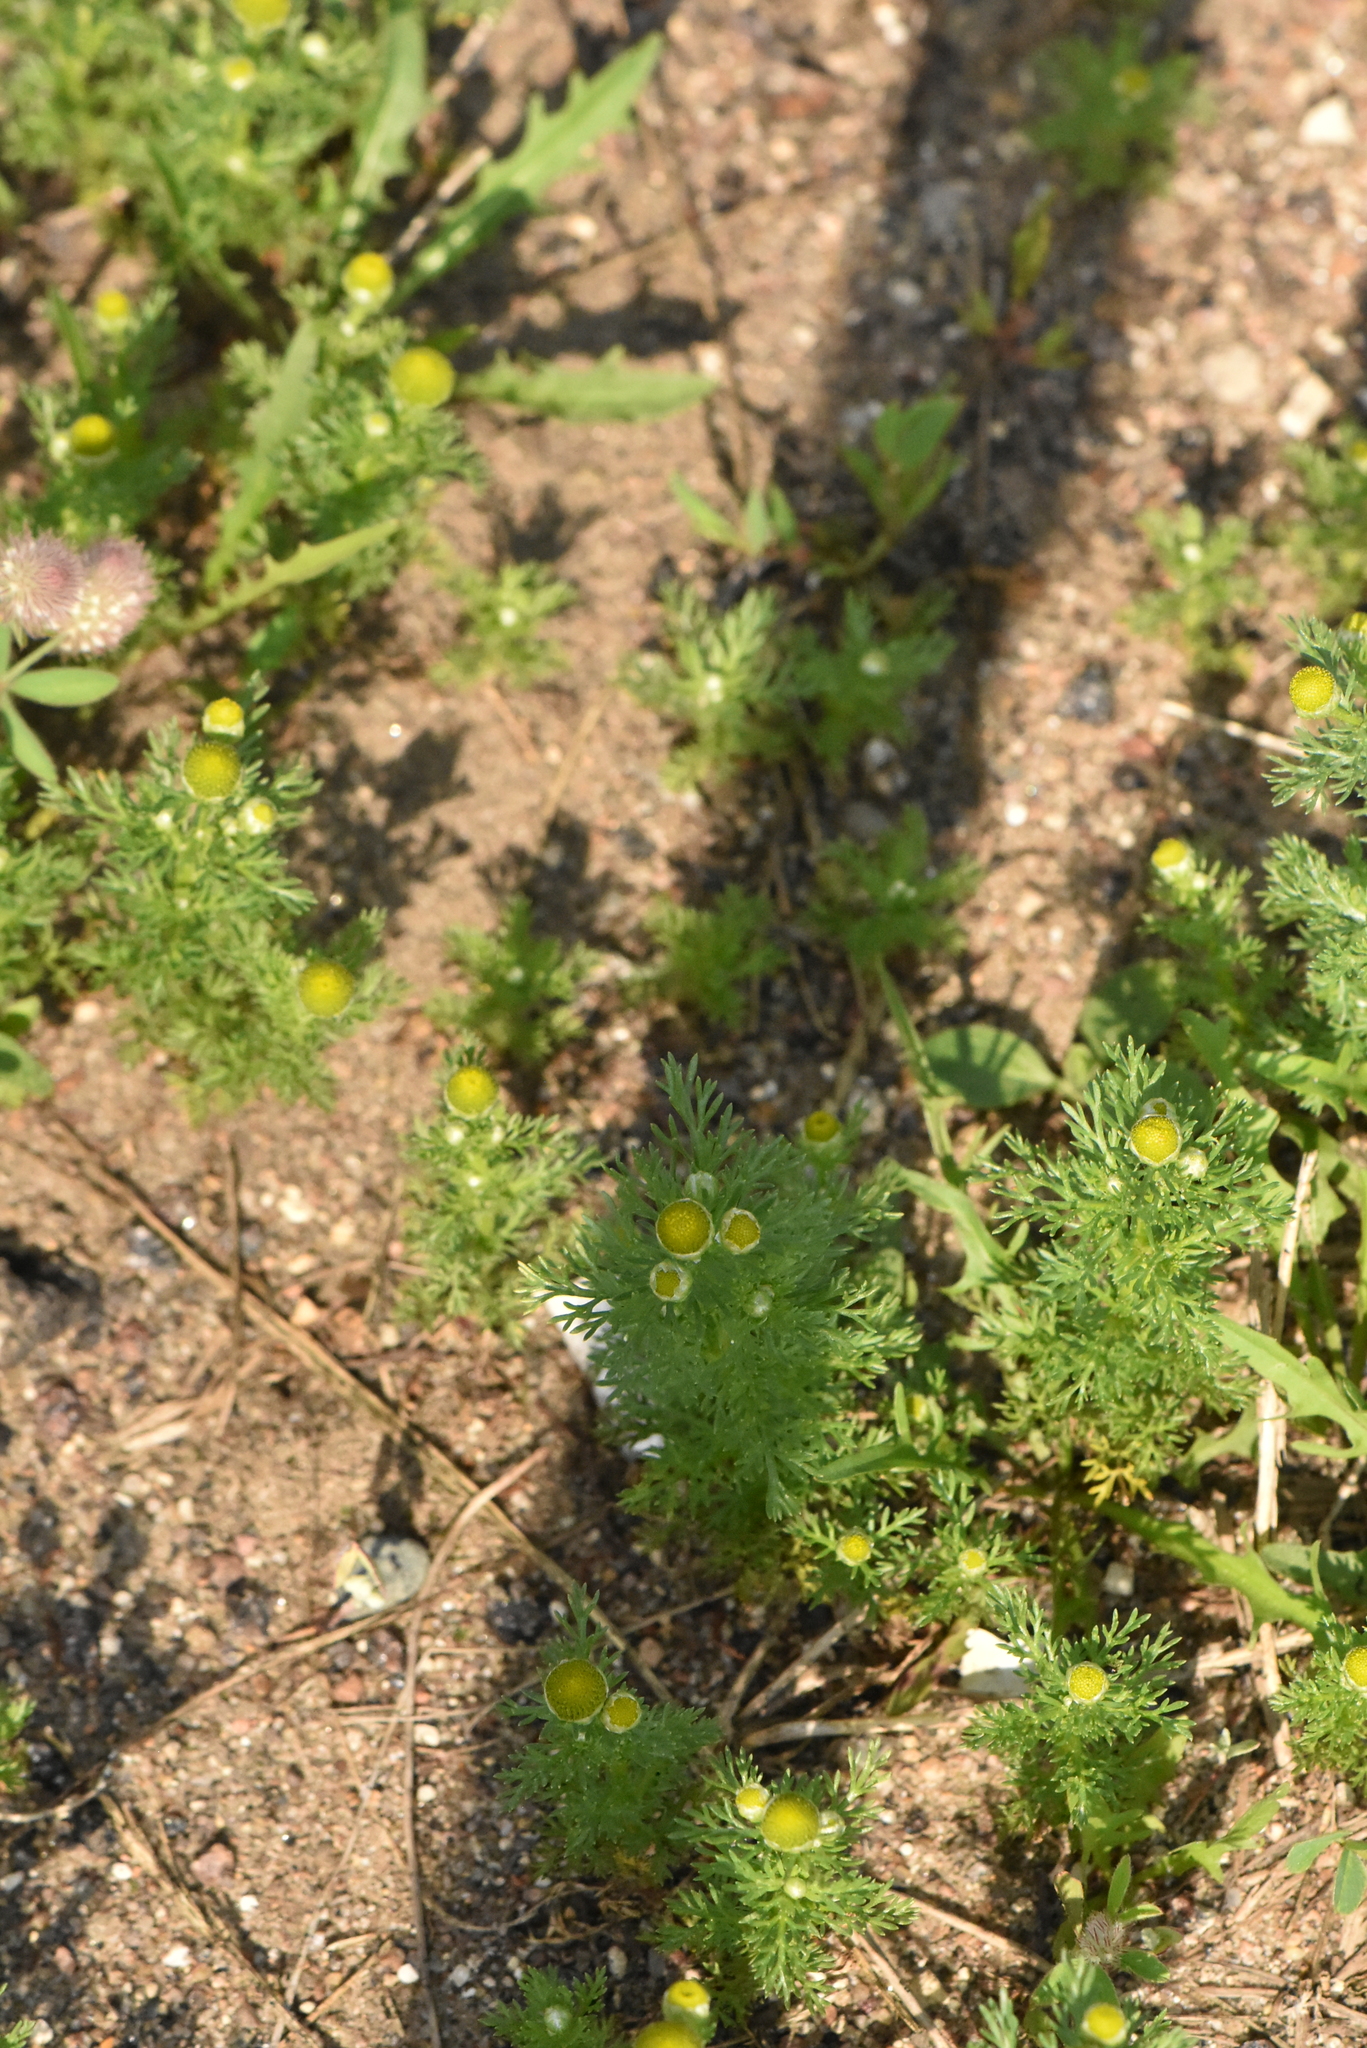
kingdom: Plantae
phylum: Tracheophyta
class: Magnoliopsida
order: Asterales
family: Asteraceae
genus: Matricaria
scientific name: Matricaria discoidea
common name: Disc mayweed
